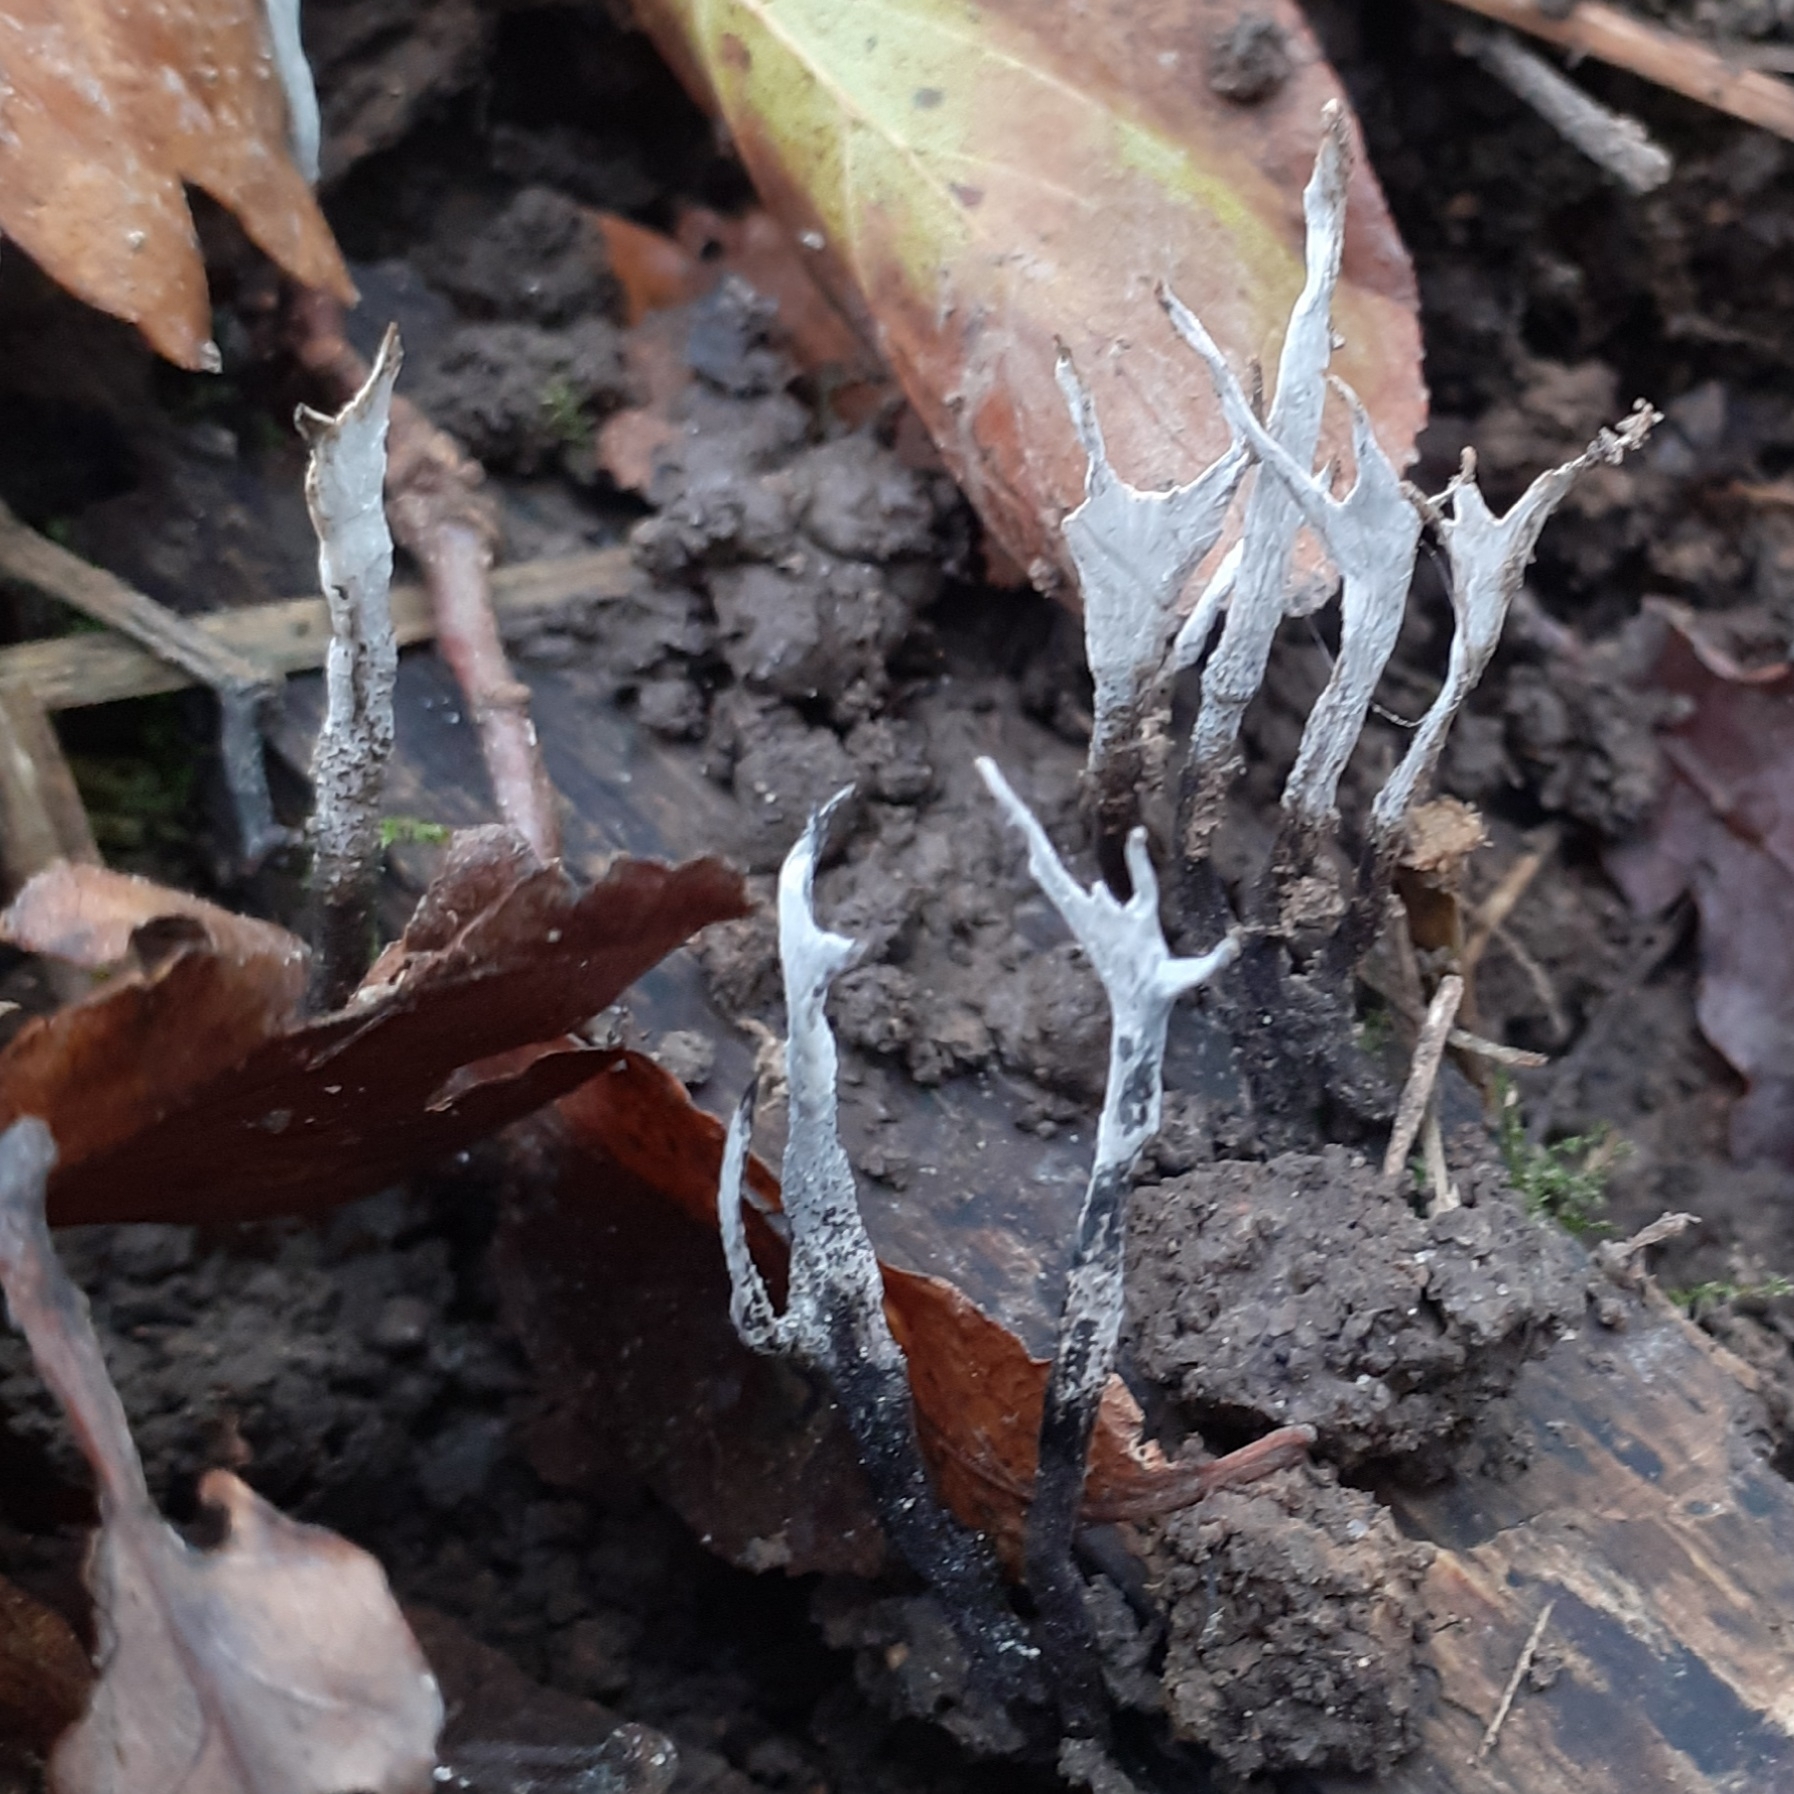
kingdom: Fungi
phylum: Ascomycota
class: Sordariomycetes
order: Xylariales
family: Xylariaceae
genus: Xylaria
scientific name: Xylaria hypoxylon
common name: Candle-snuff fungus
